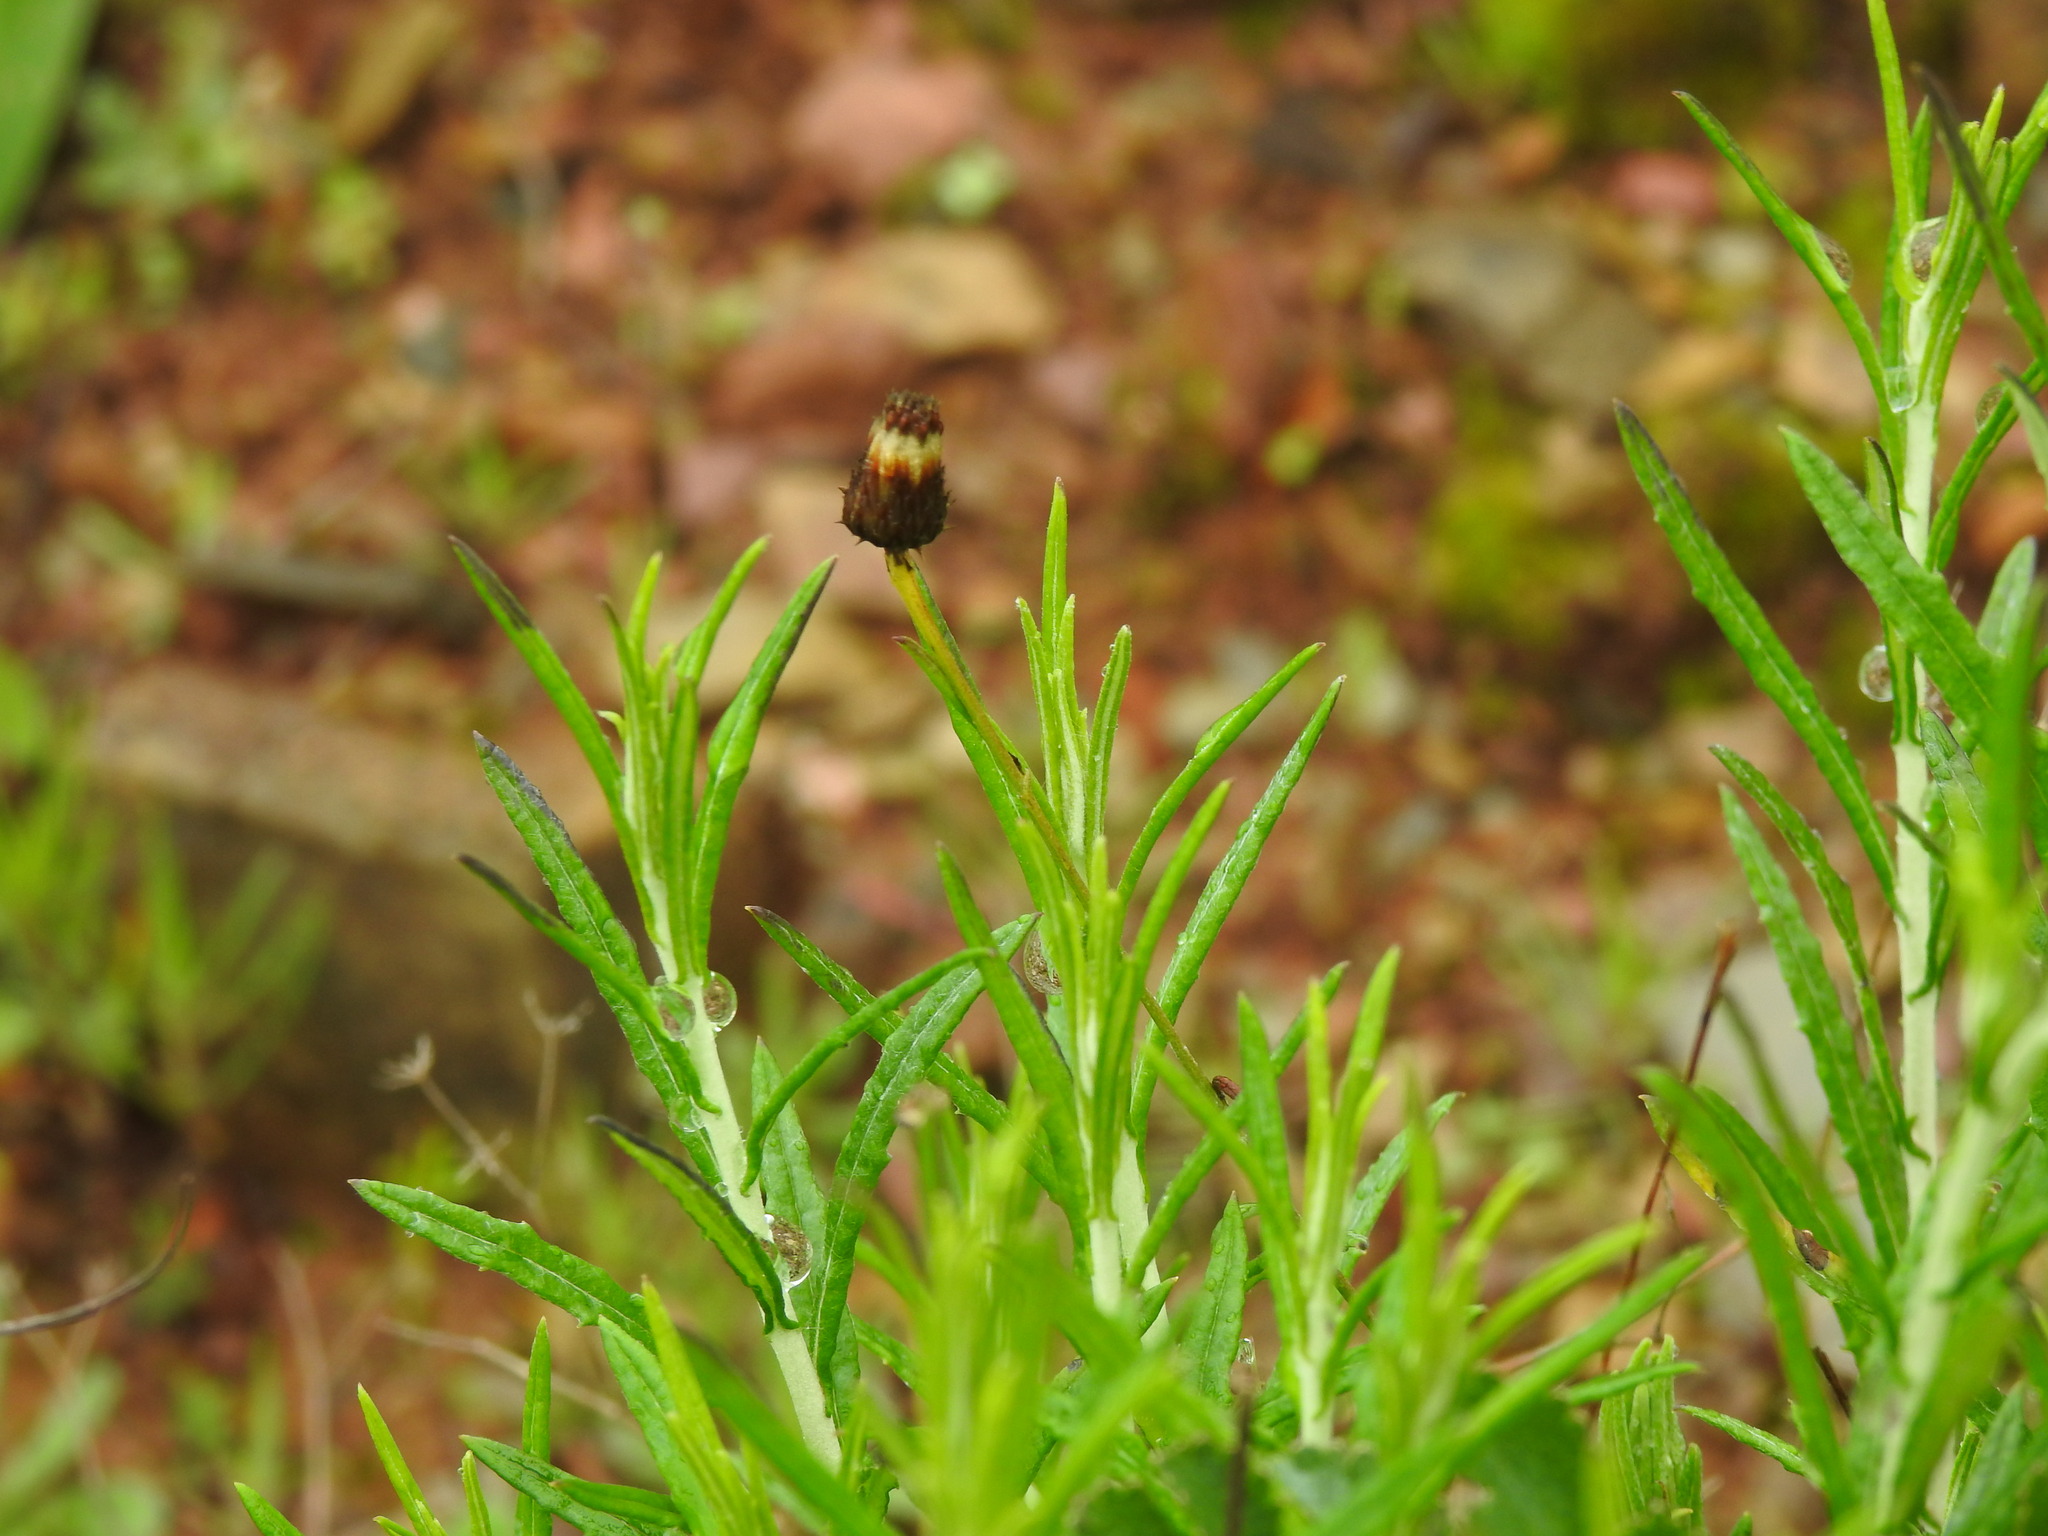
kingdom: Plantae
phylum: Tracheophyta
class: Magnoliopsida
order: Asterales
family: Asteraceae
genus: Phagnalon
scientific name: Phagnalon saxatile
